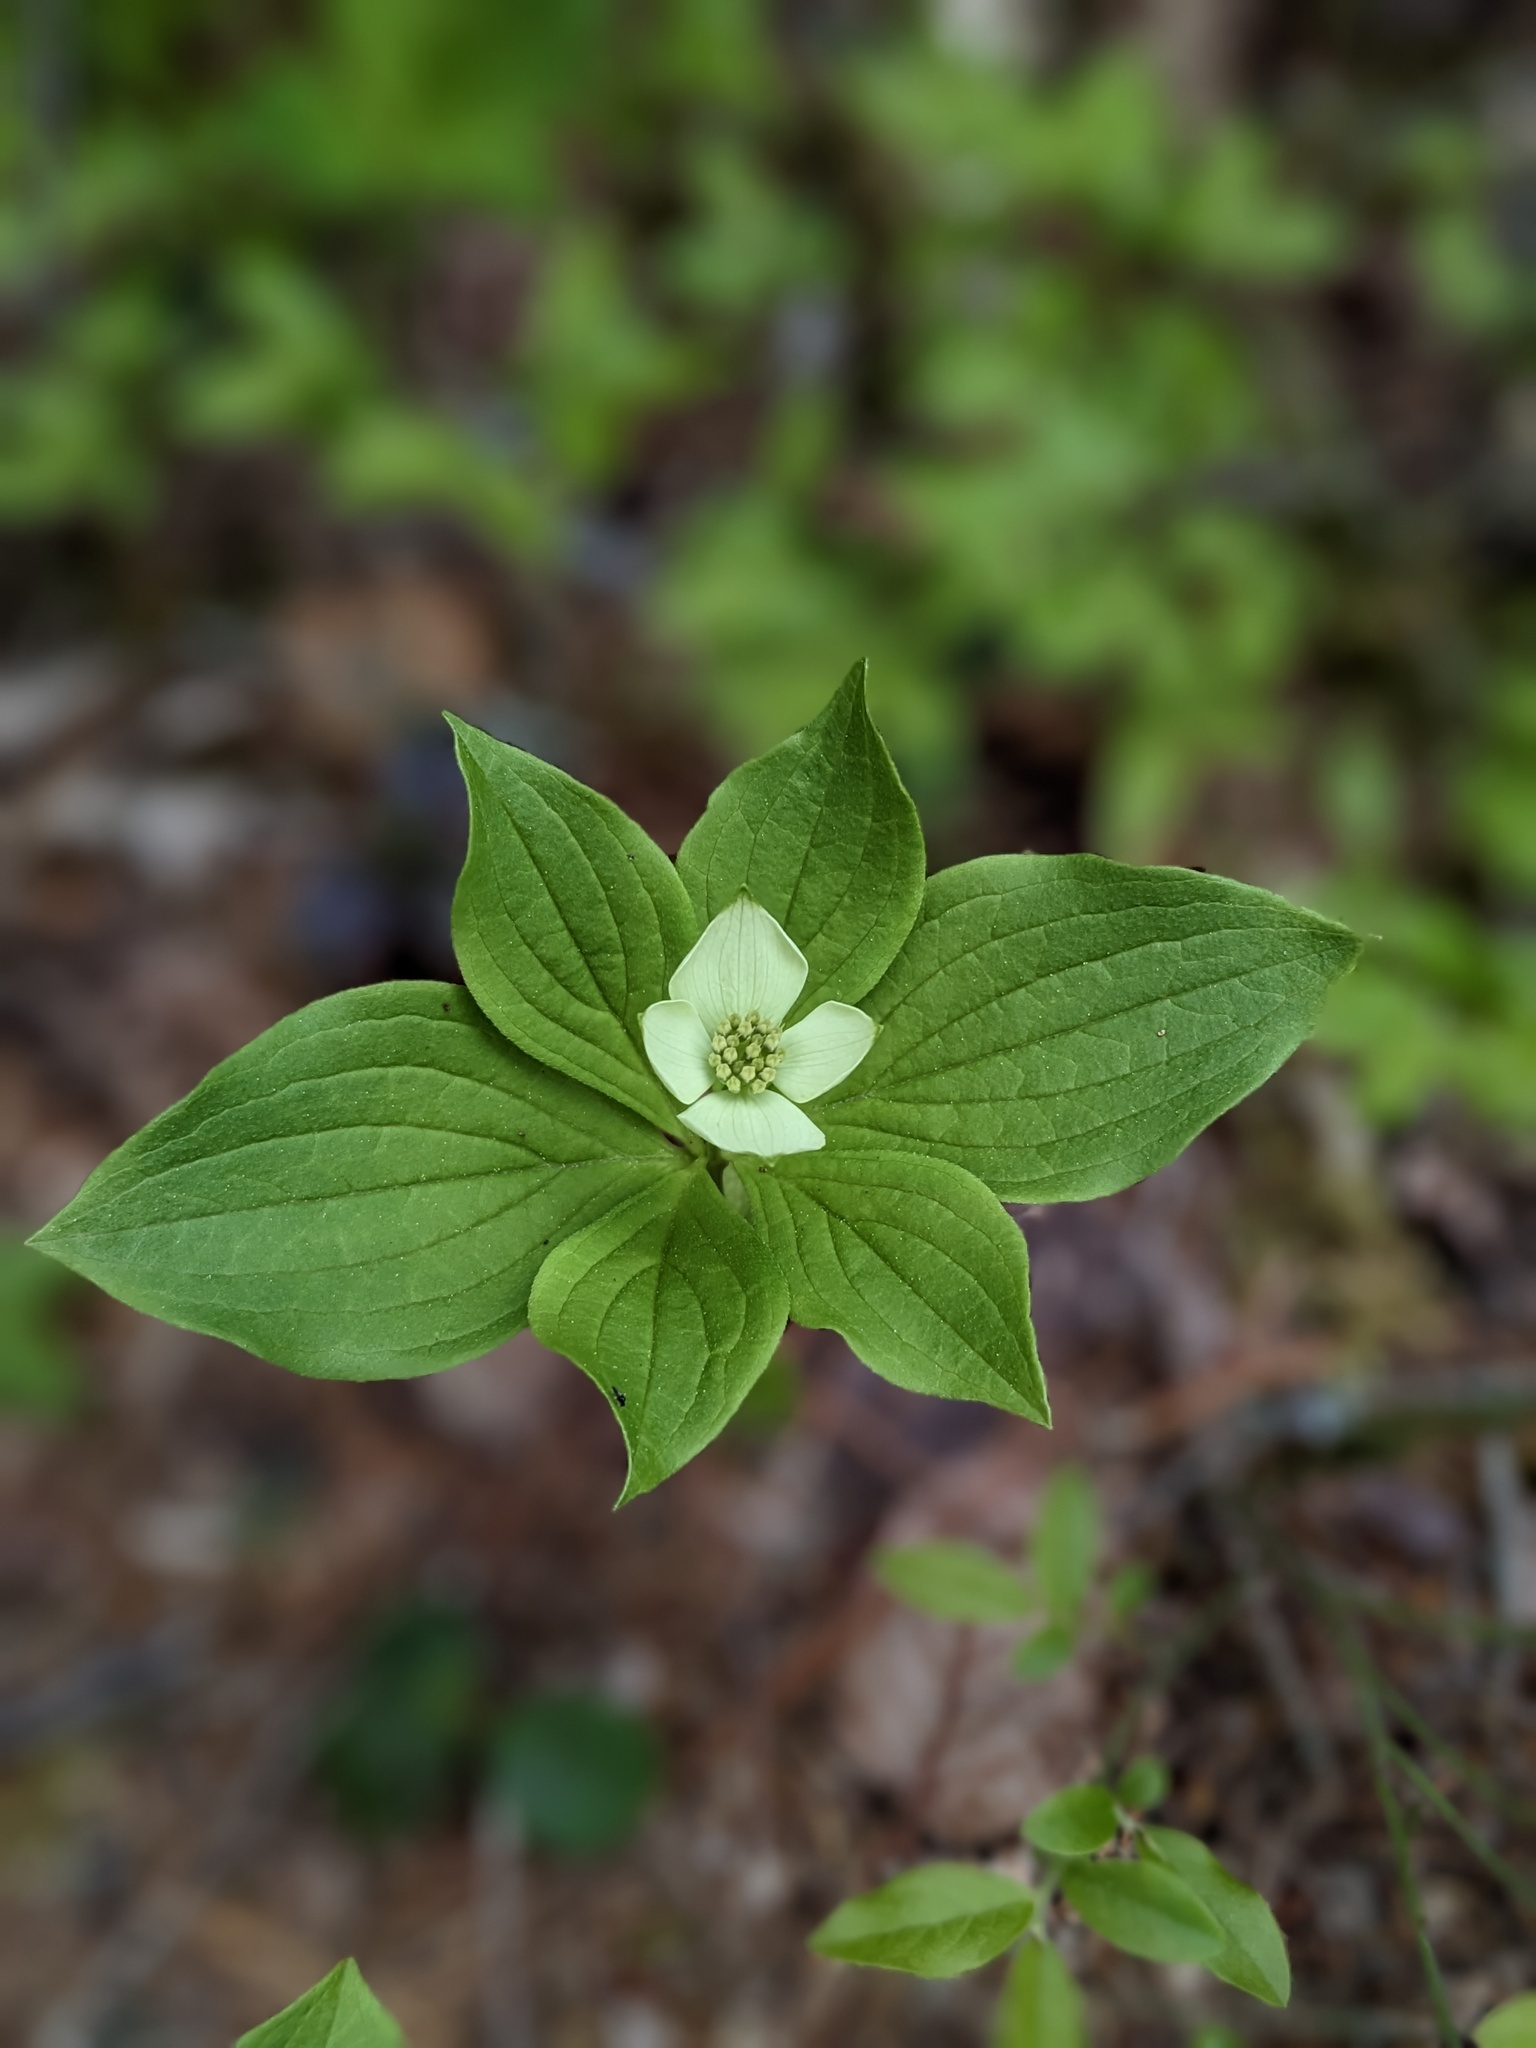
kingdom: Plantae
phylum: Tracheophyta
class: Magnoliopsida
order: Cornales
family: Cornaceae
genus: Cornus
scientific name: Cornus canadensis
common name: Creeping dogwood
